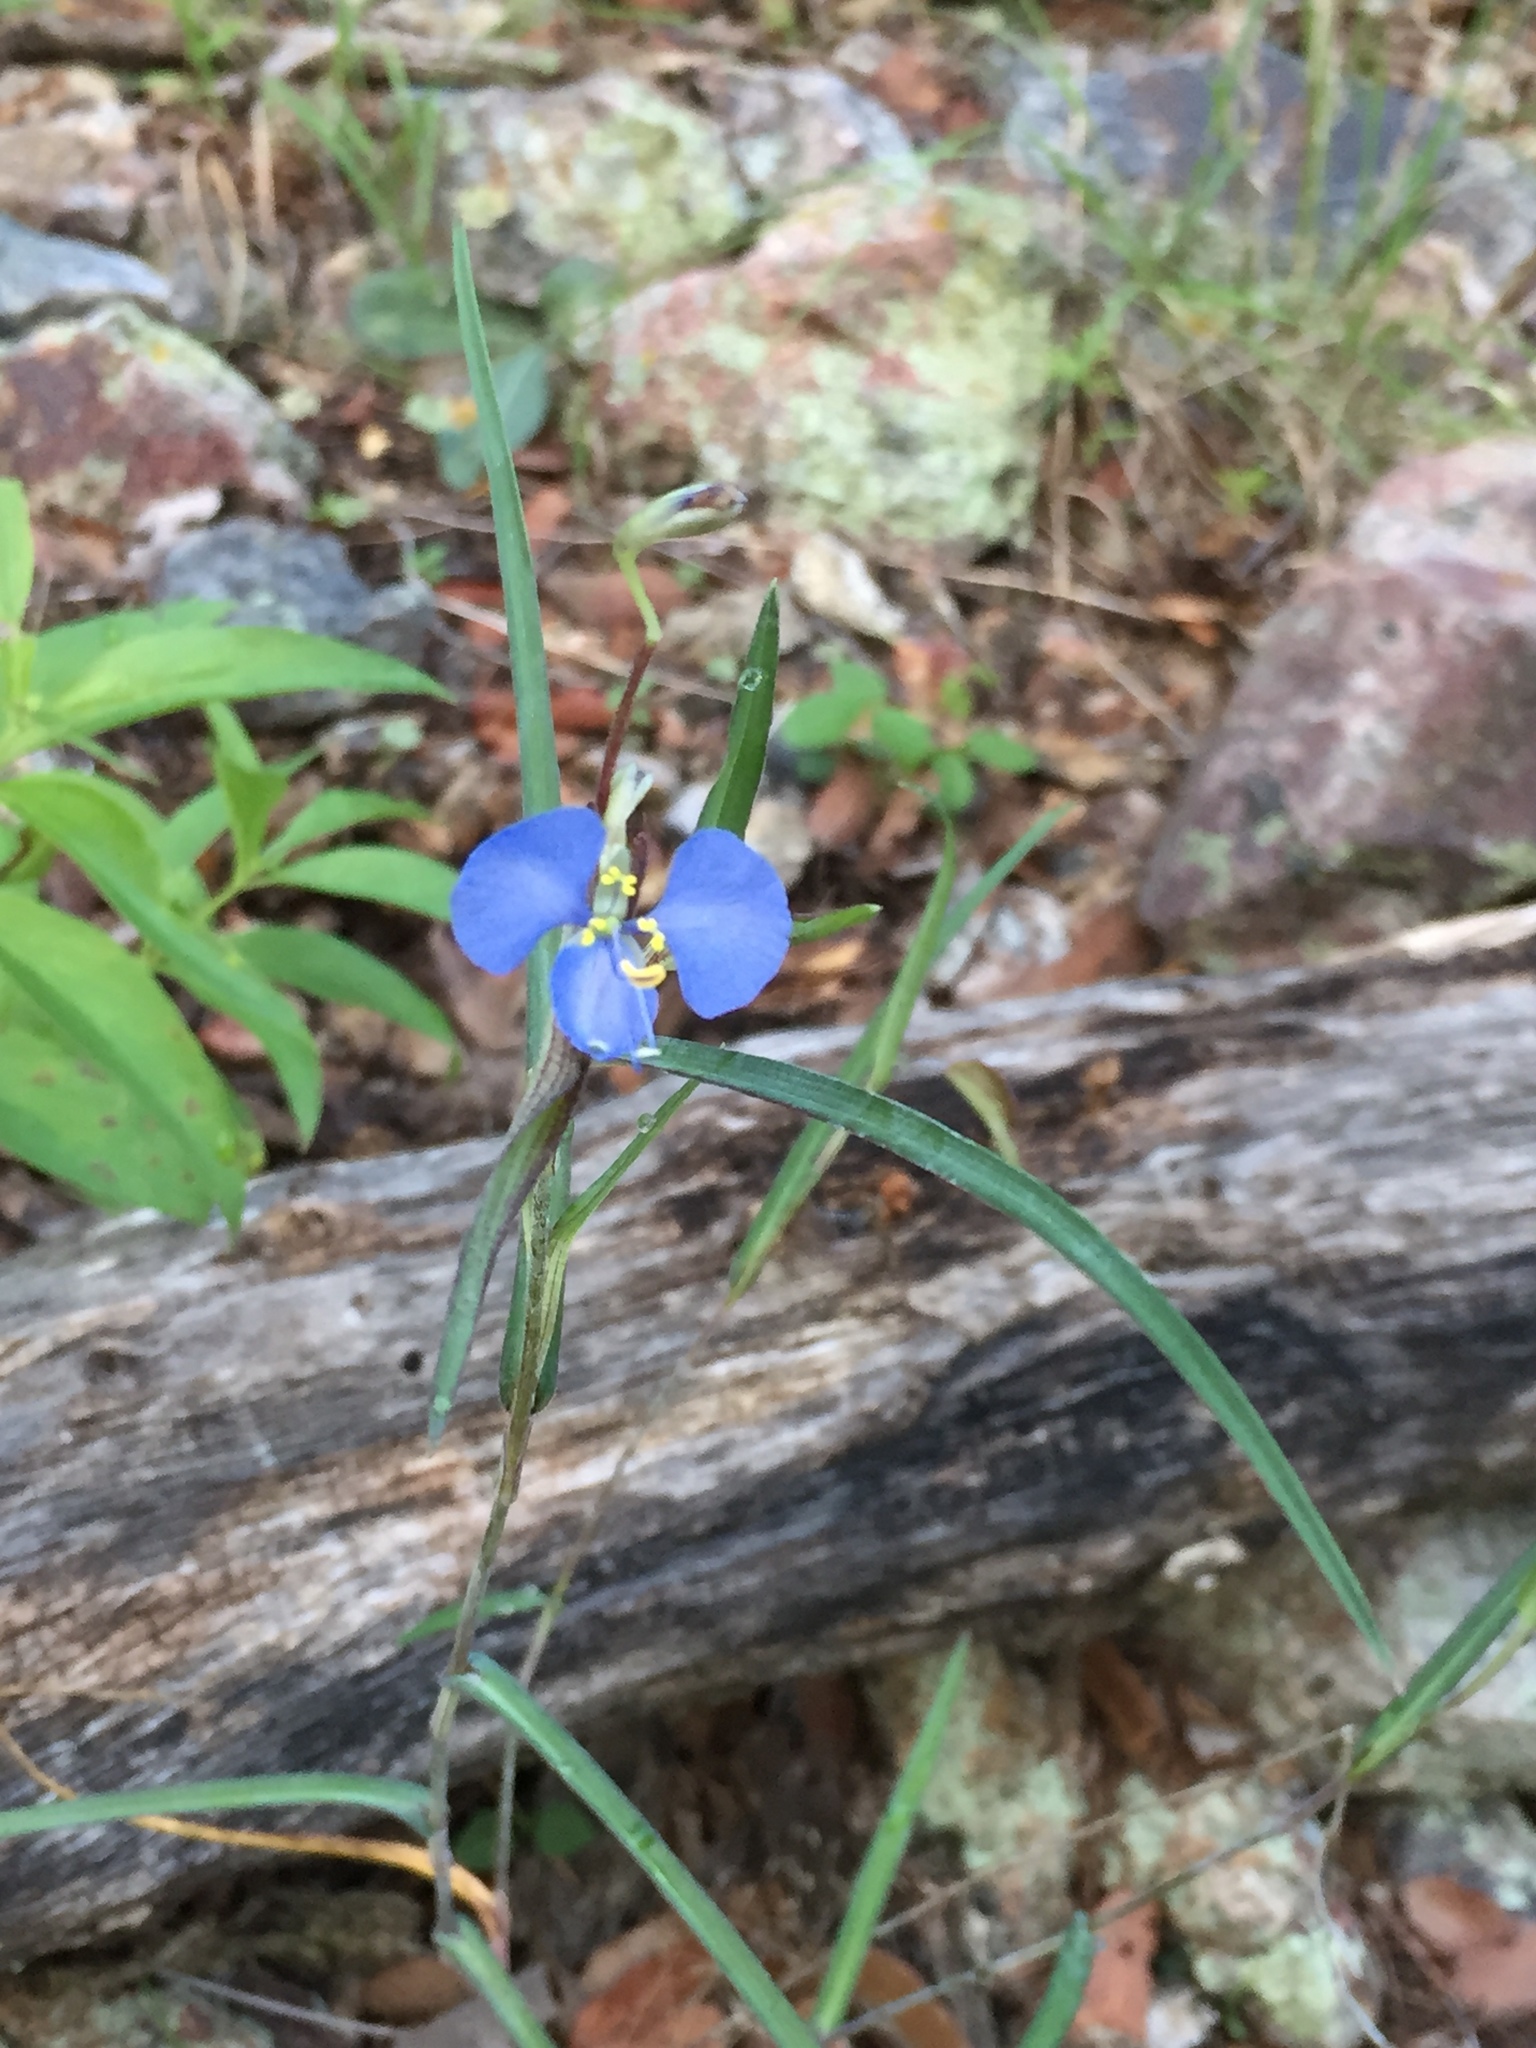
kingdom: Plantae
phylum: Tracheophyta
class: Liliopsida
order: Commelinales
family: Commelinaceae
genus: Commelina
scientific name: Commelina dianthifolia
